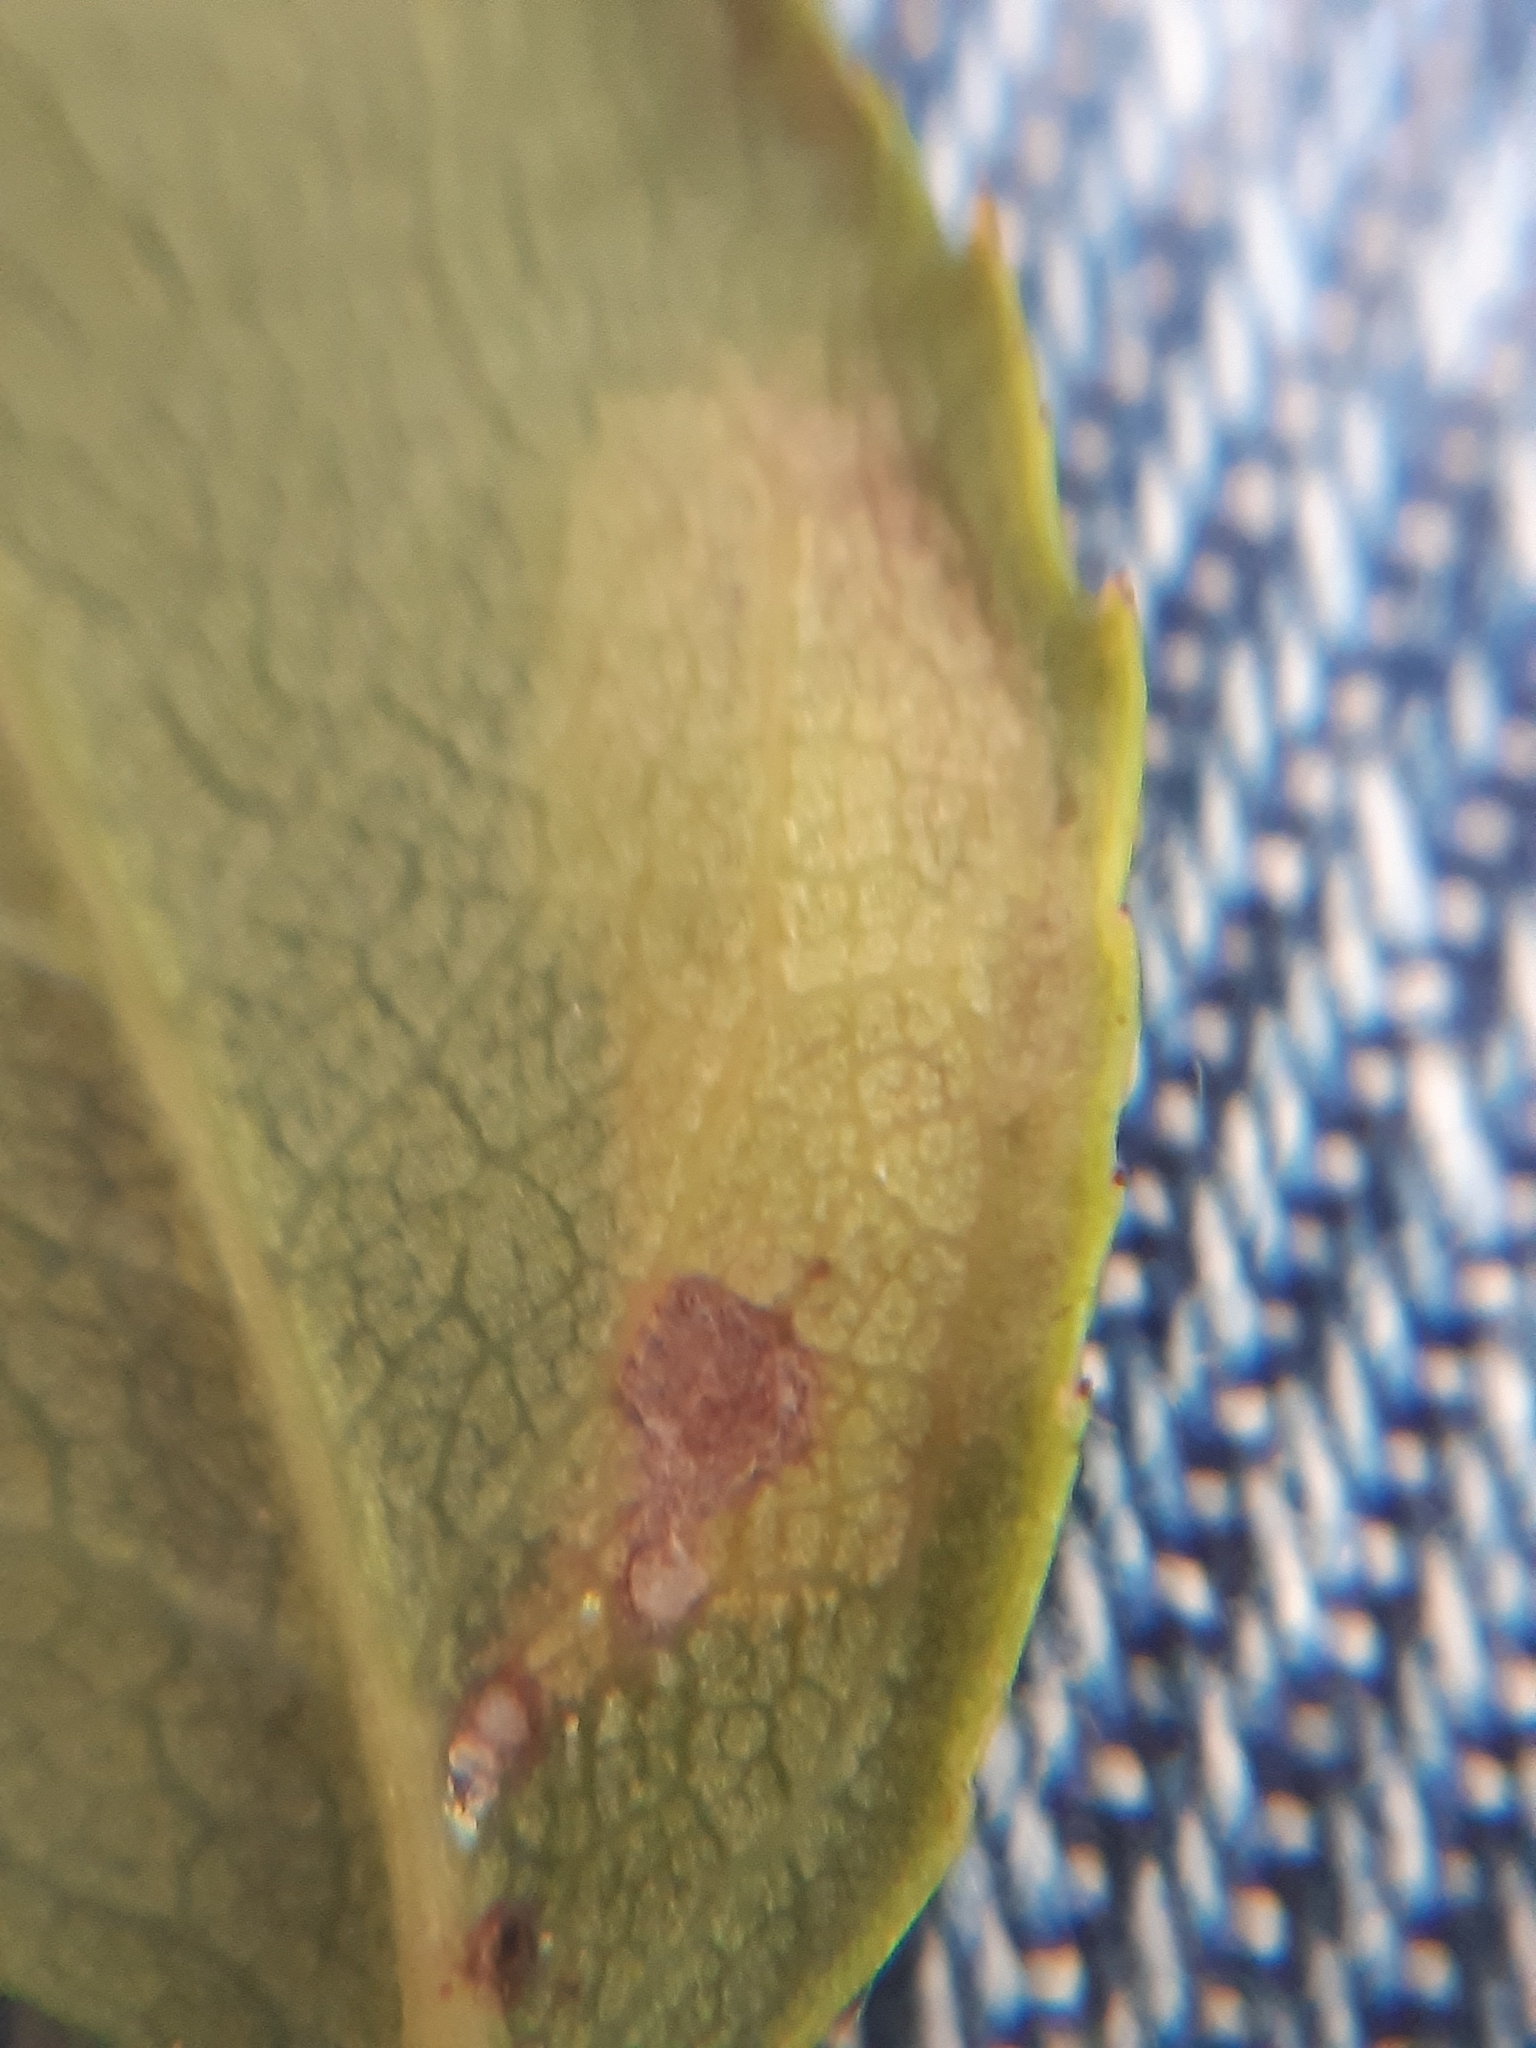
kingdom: Animalia
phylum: Arthropoda
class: Insecta
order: Lepidoptera
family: Tischeriidae
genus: Coptotriche
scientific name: Coptotriche angusticolella
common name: Rose carl
